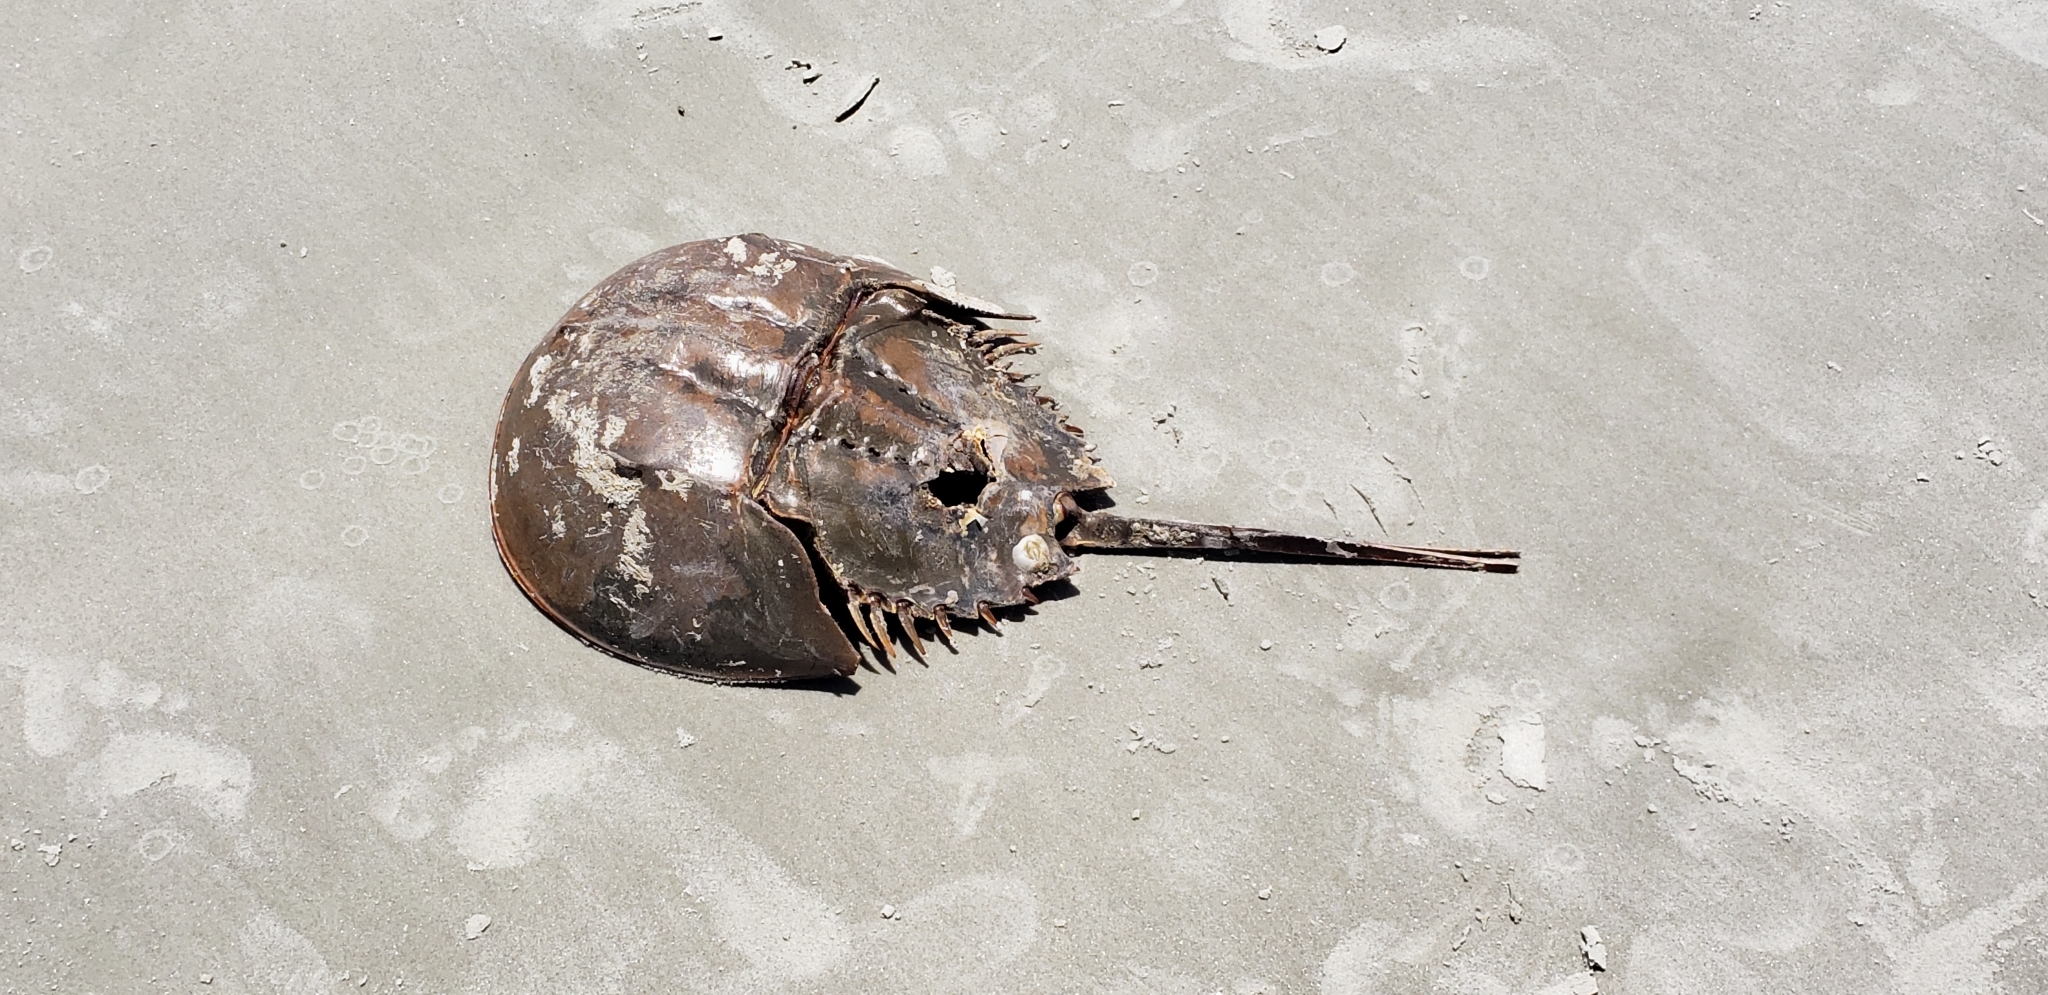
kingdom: Animalia
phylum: Arthropoda
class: Merostomata
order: Xiphosurida
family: Limulidae
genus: Limulus
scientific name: Limulus polyphemus
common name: Horseshoe crab
